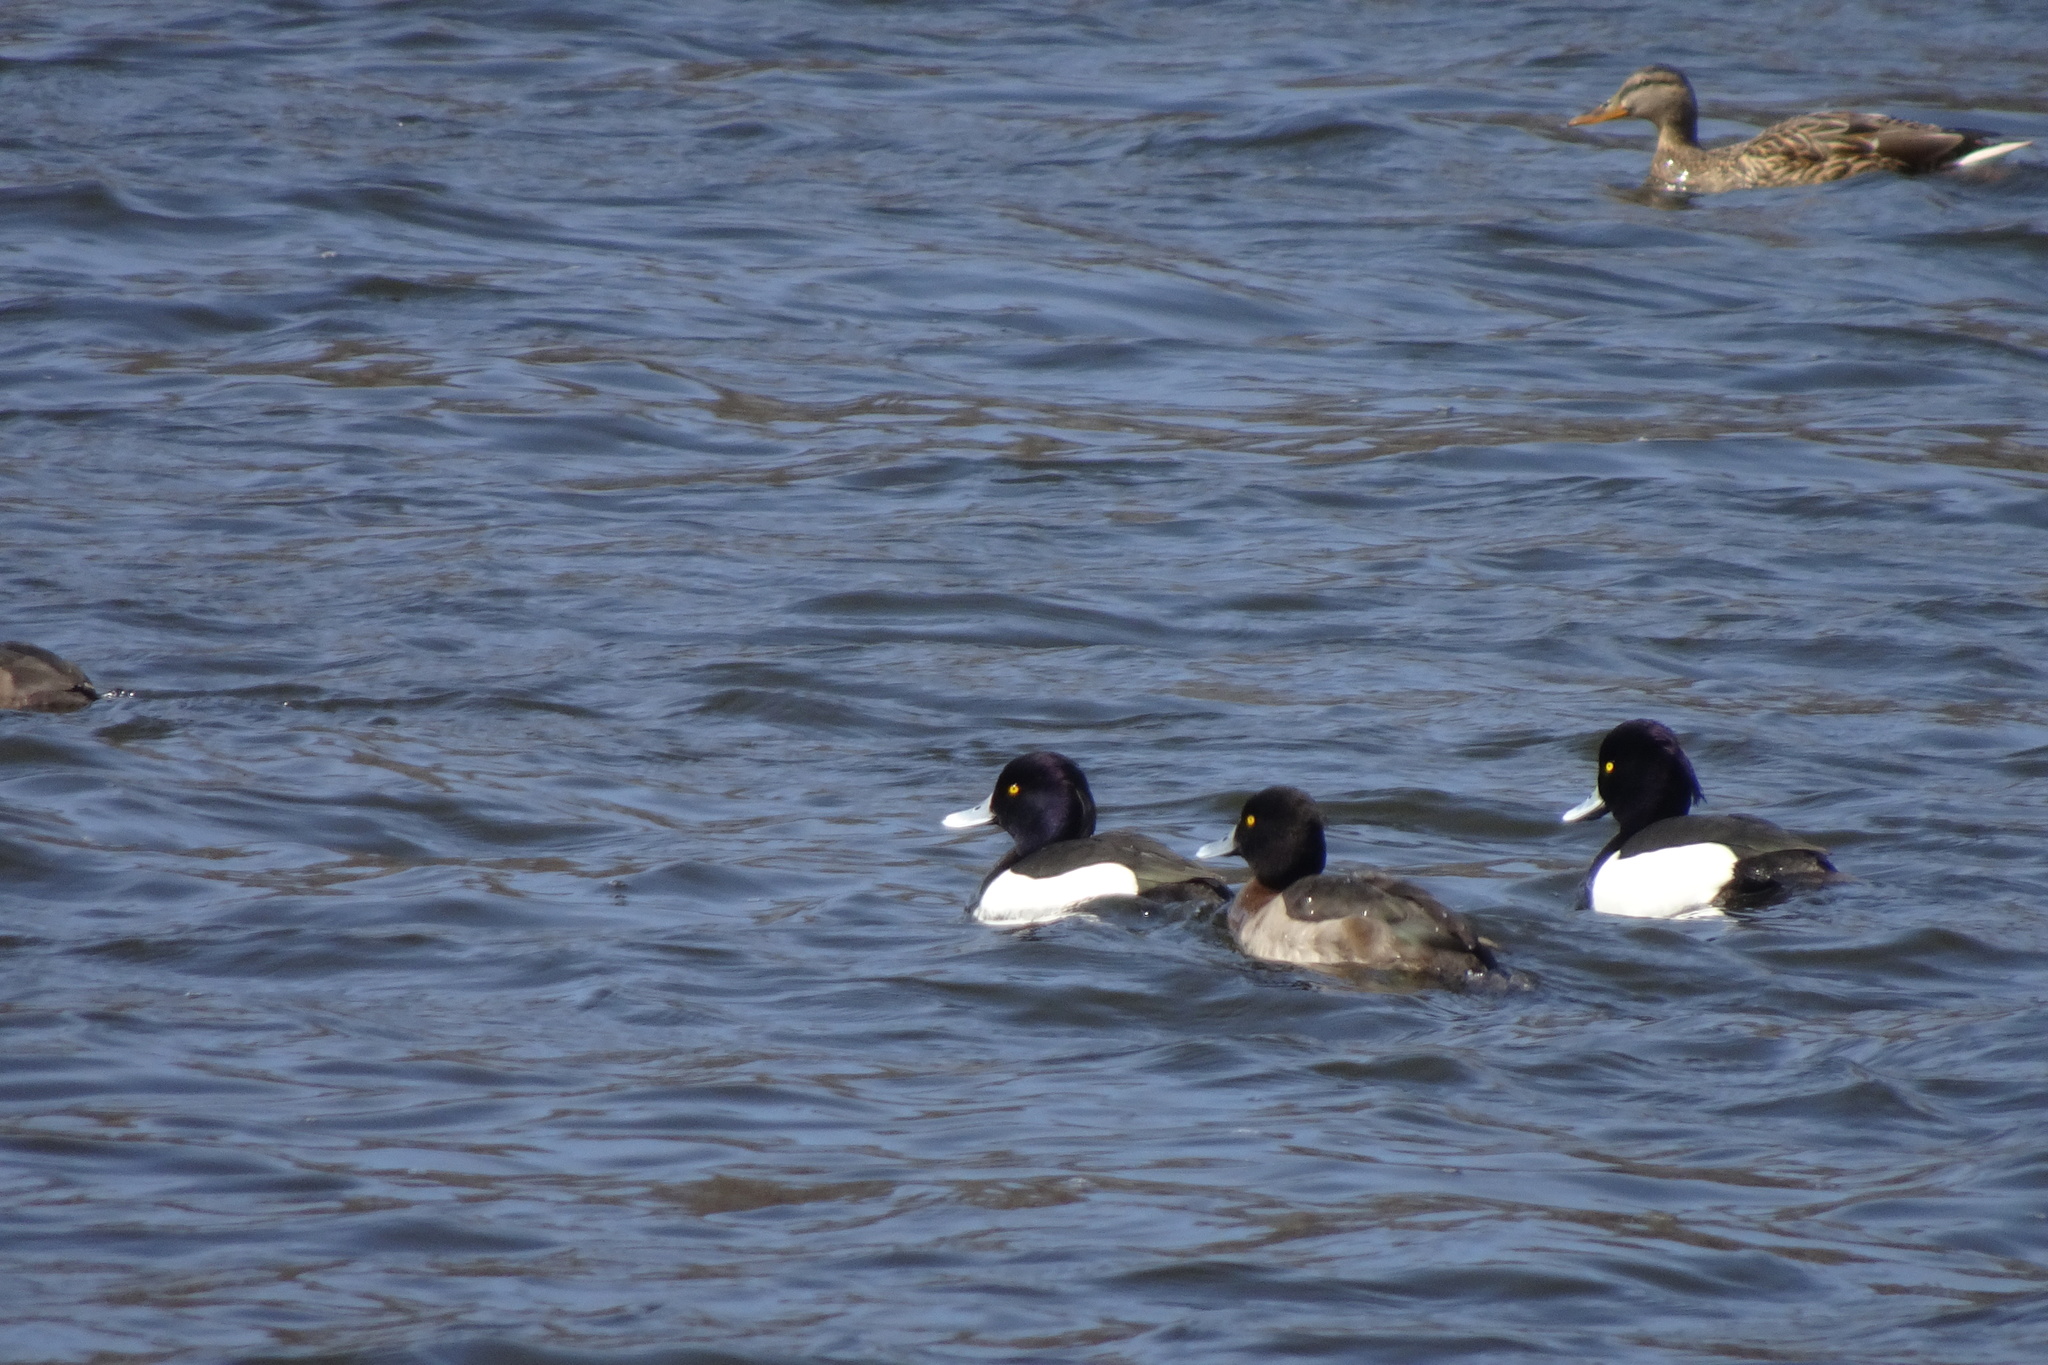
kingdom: Animalia
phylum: Chordata
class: Aves
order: Anseriformes
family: Anatidae
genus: Aythya
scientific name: Aythya fuligula
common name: Tufted duck
